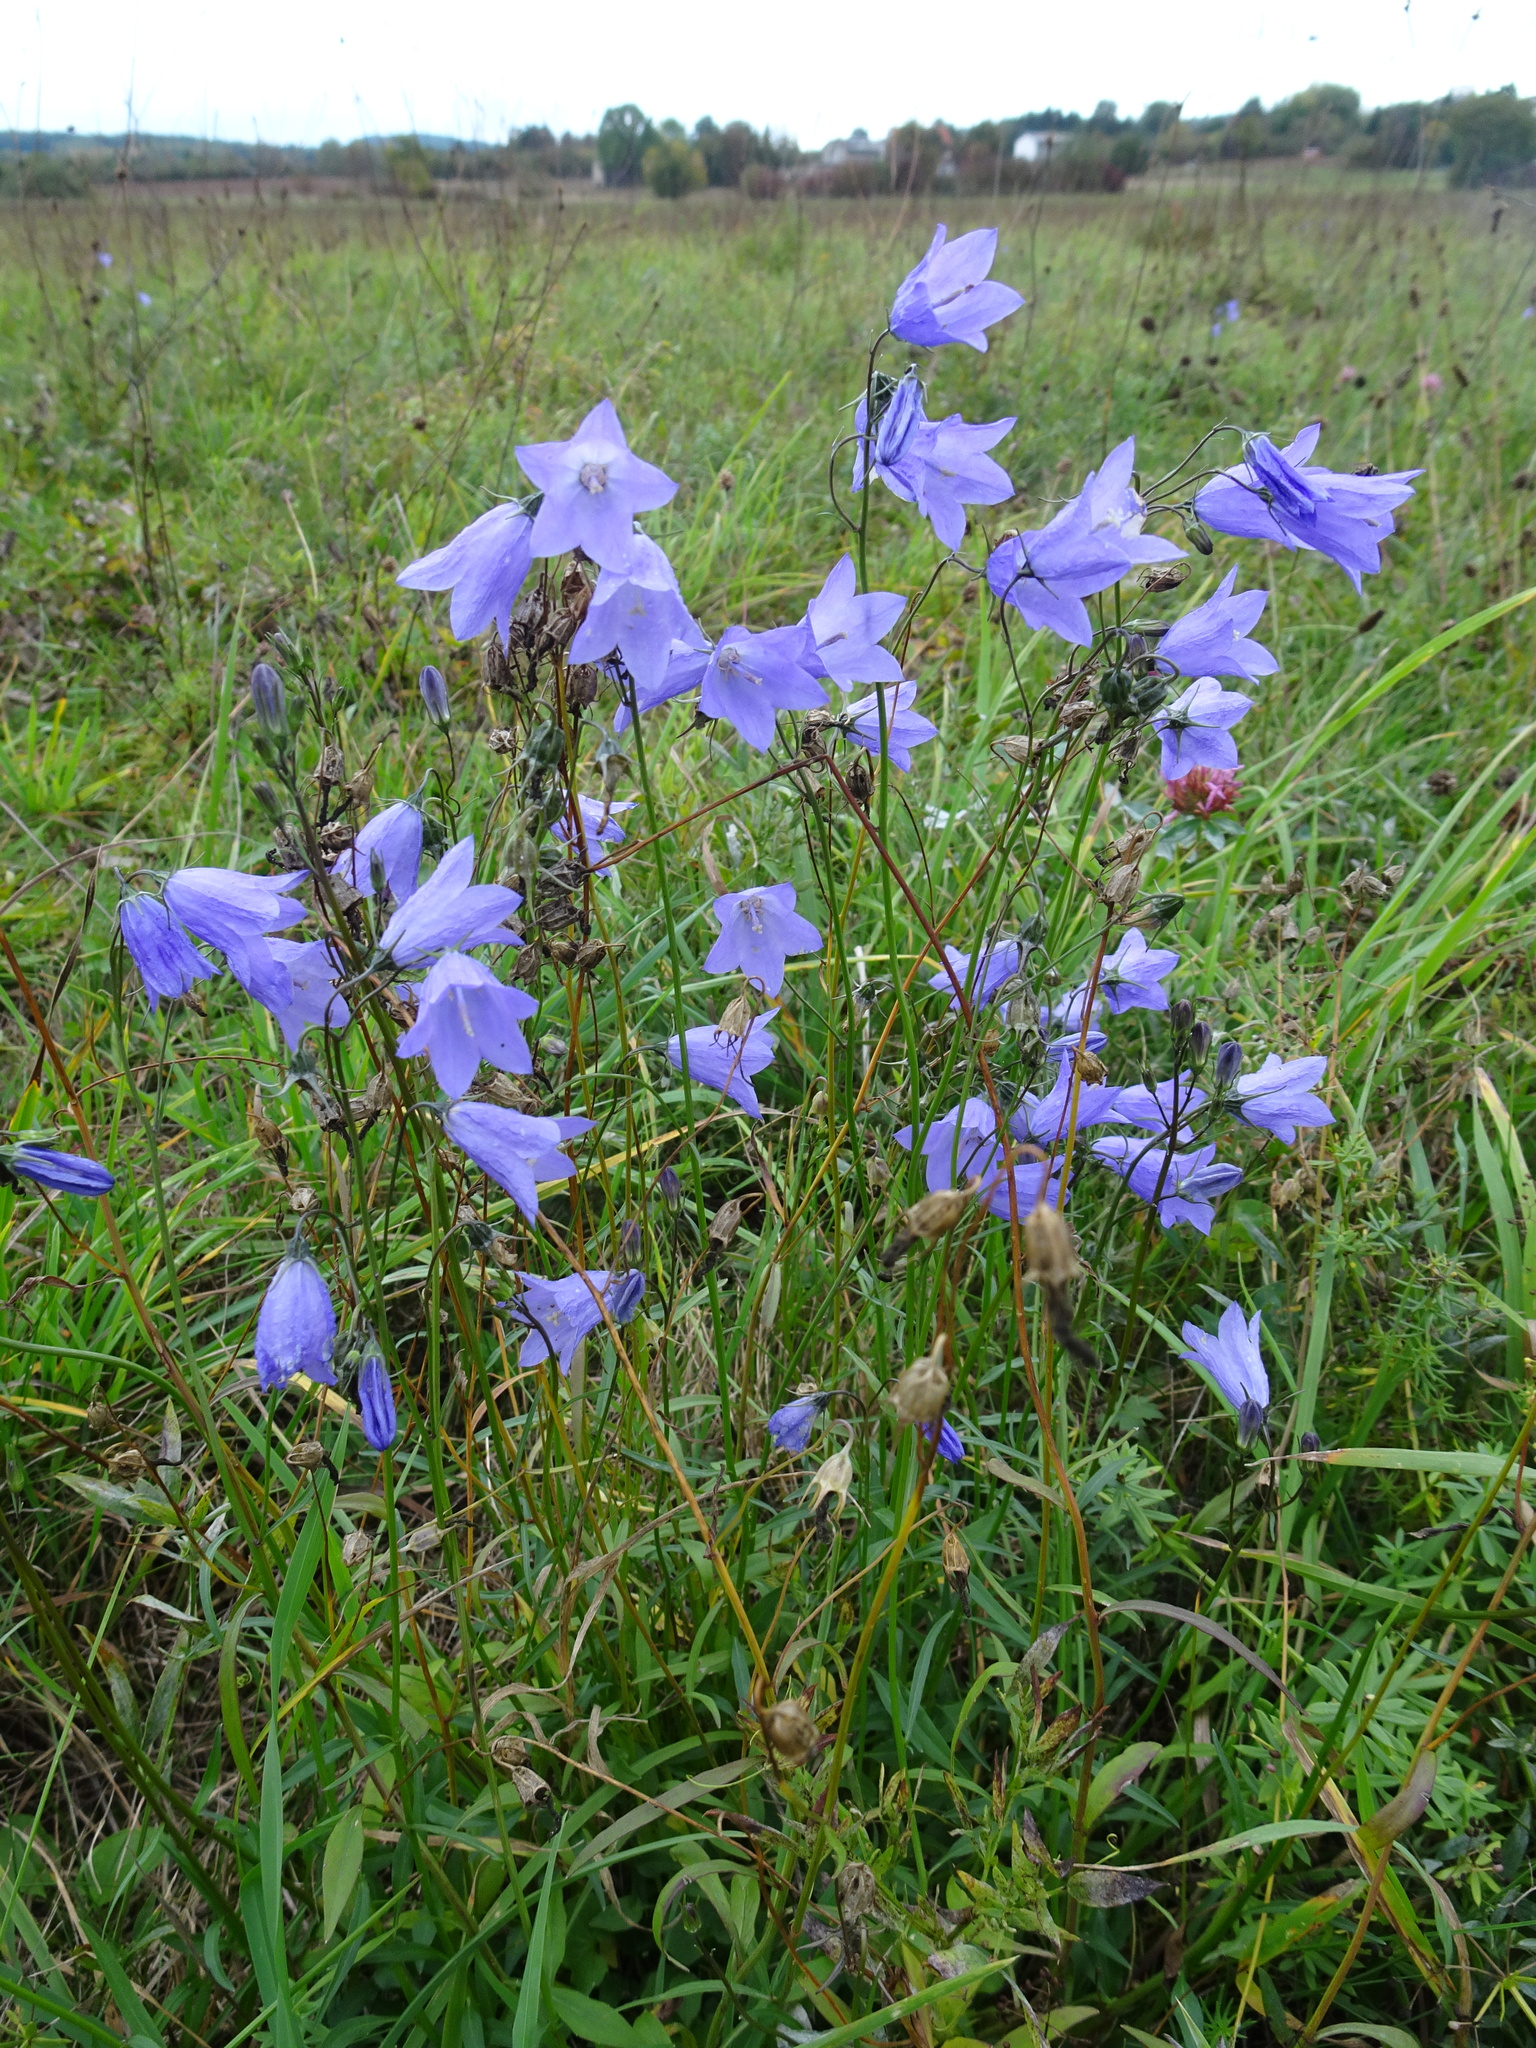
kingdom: Plantae
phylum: Tracheophyta
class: Magnoliopsida
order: Asterales
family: Campanulaceae
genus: Campanula
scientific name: Campanula rotundifolia
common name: Harebell
